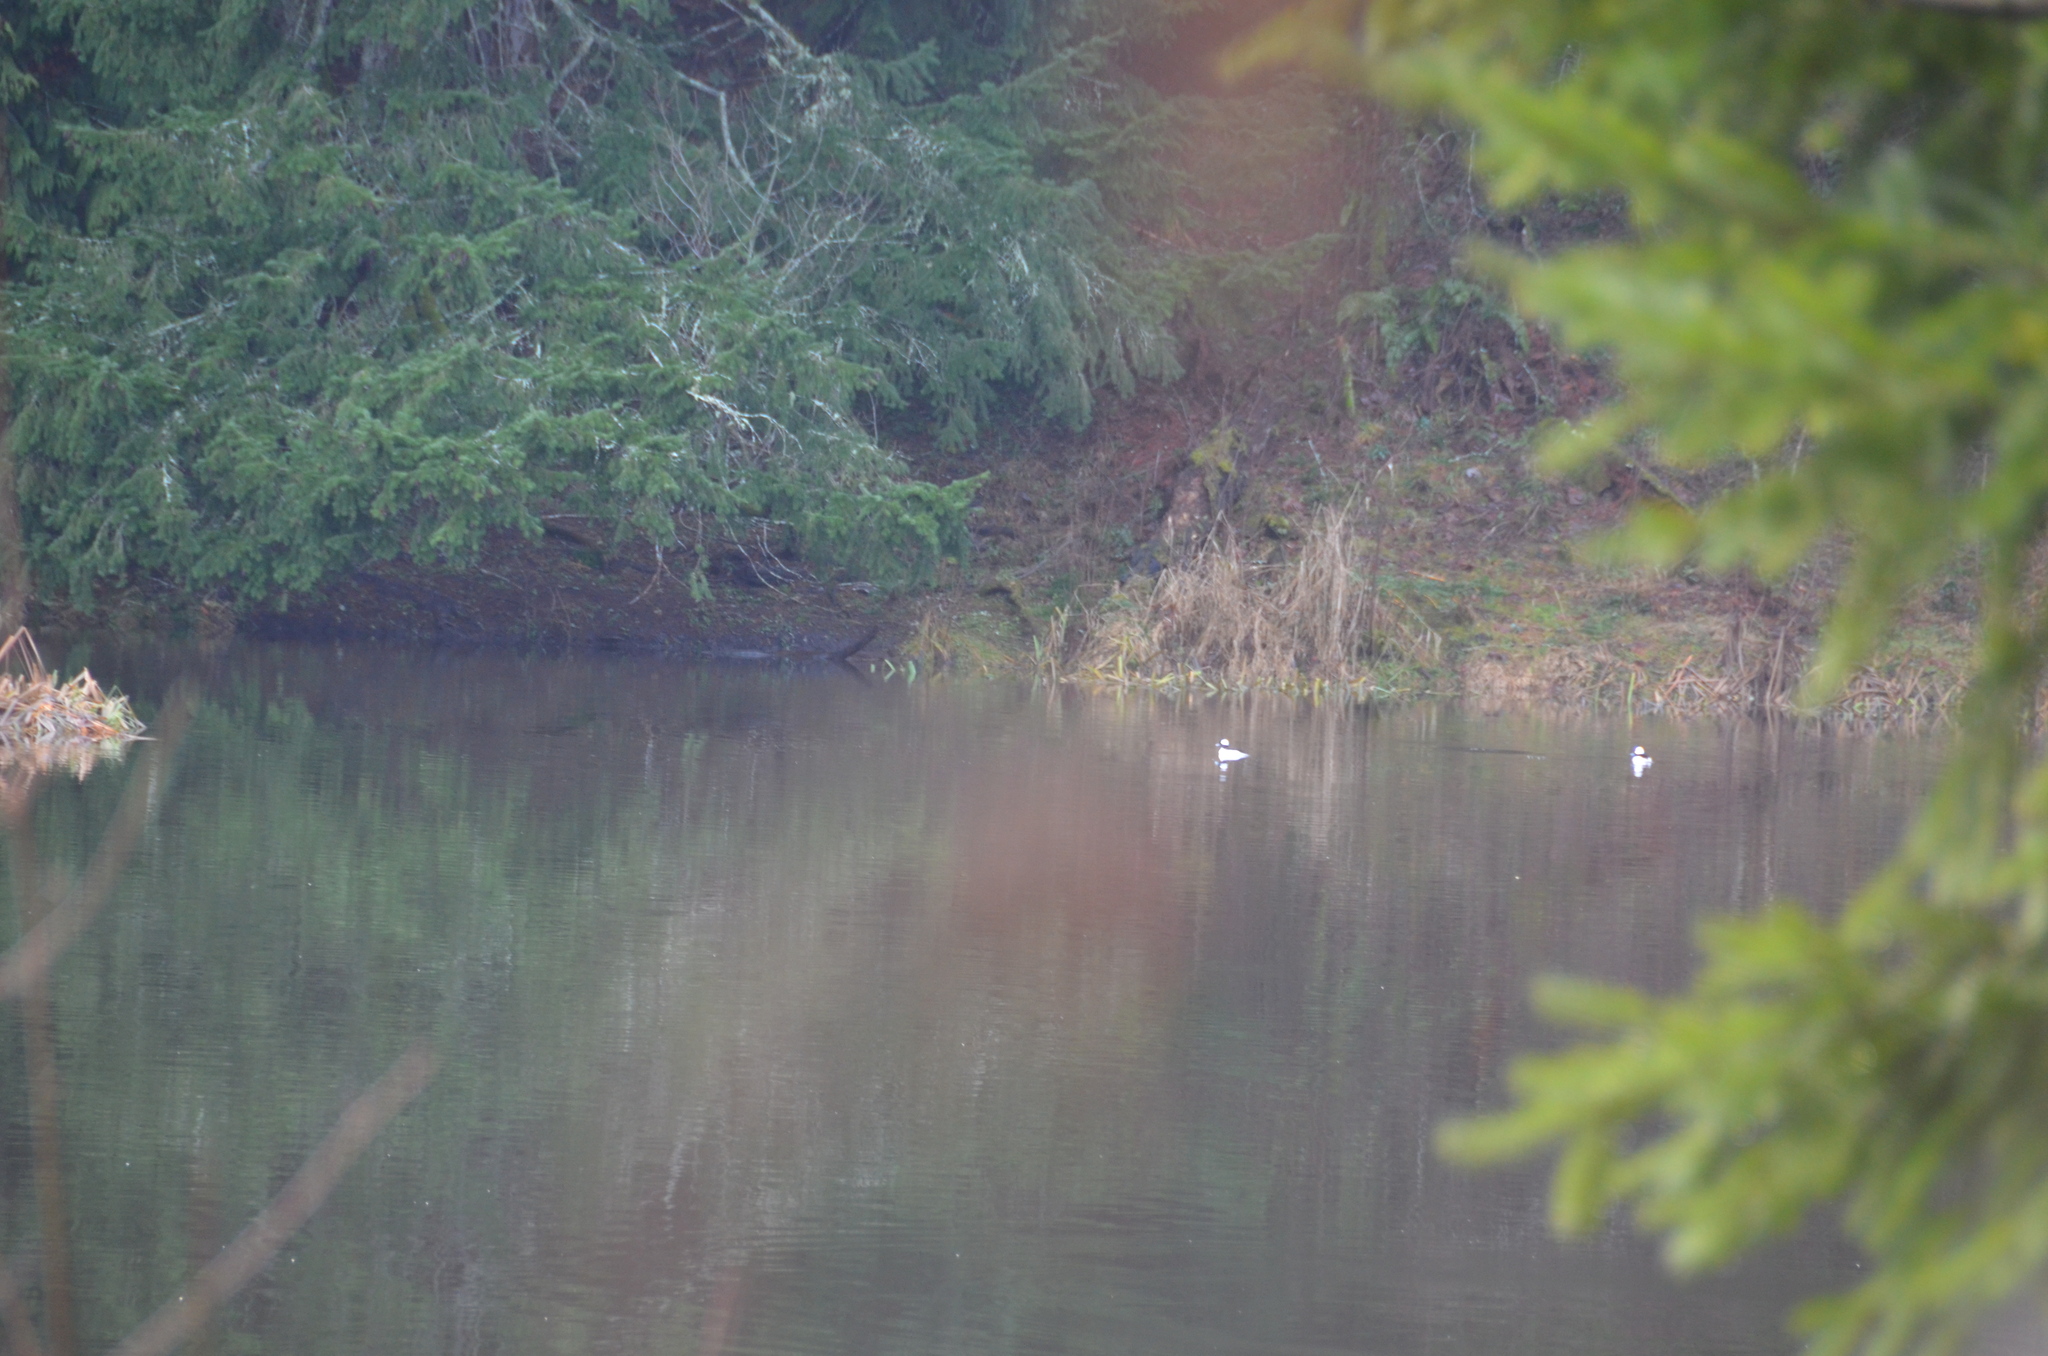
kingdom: Animalia
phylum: Chordata
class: Aves
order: Anseriformes
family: Anatidae
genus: Bucephala
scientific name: Bucephala albeola
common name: Bufflehead
